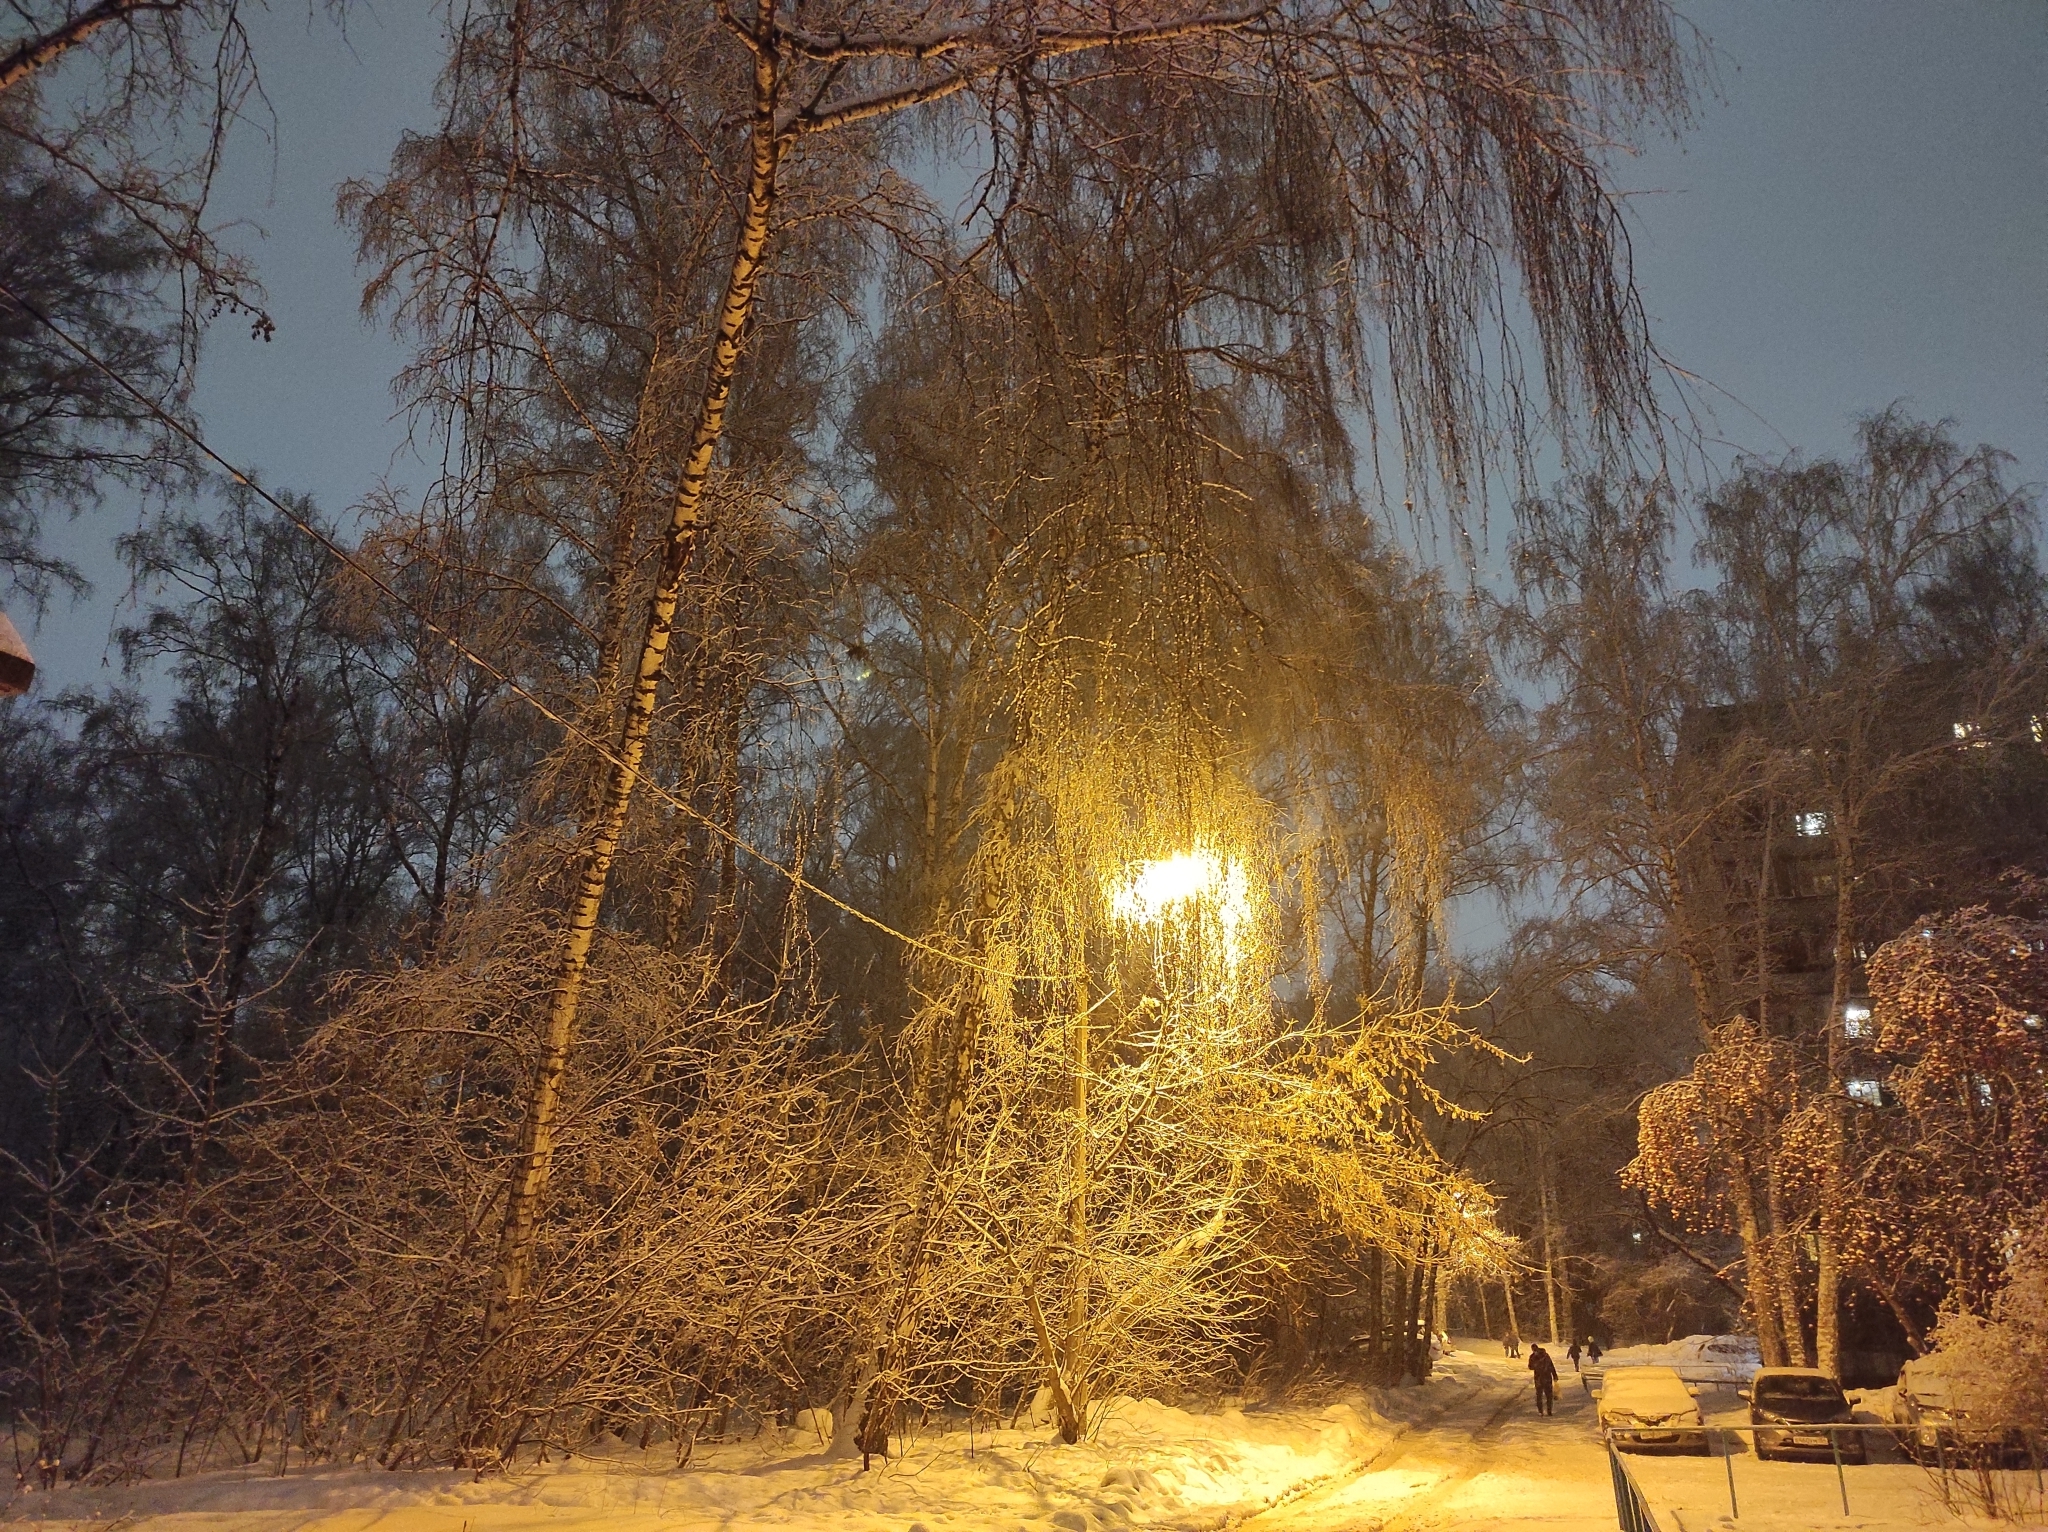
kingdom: Plantae
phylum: Tracheophyta
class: Magnoliopsida
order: Fagales
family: Betulaceae
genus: Betula
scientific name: Betula pendula
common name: Silver birch
